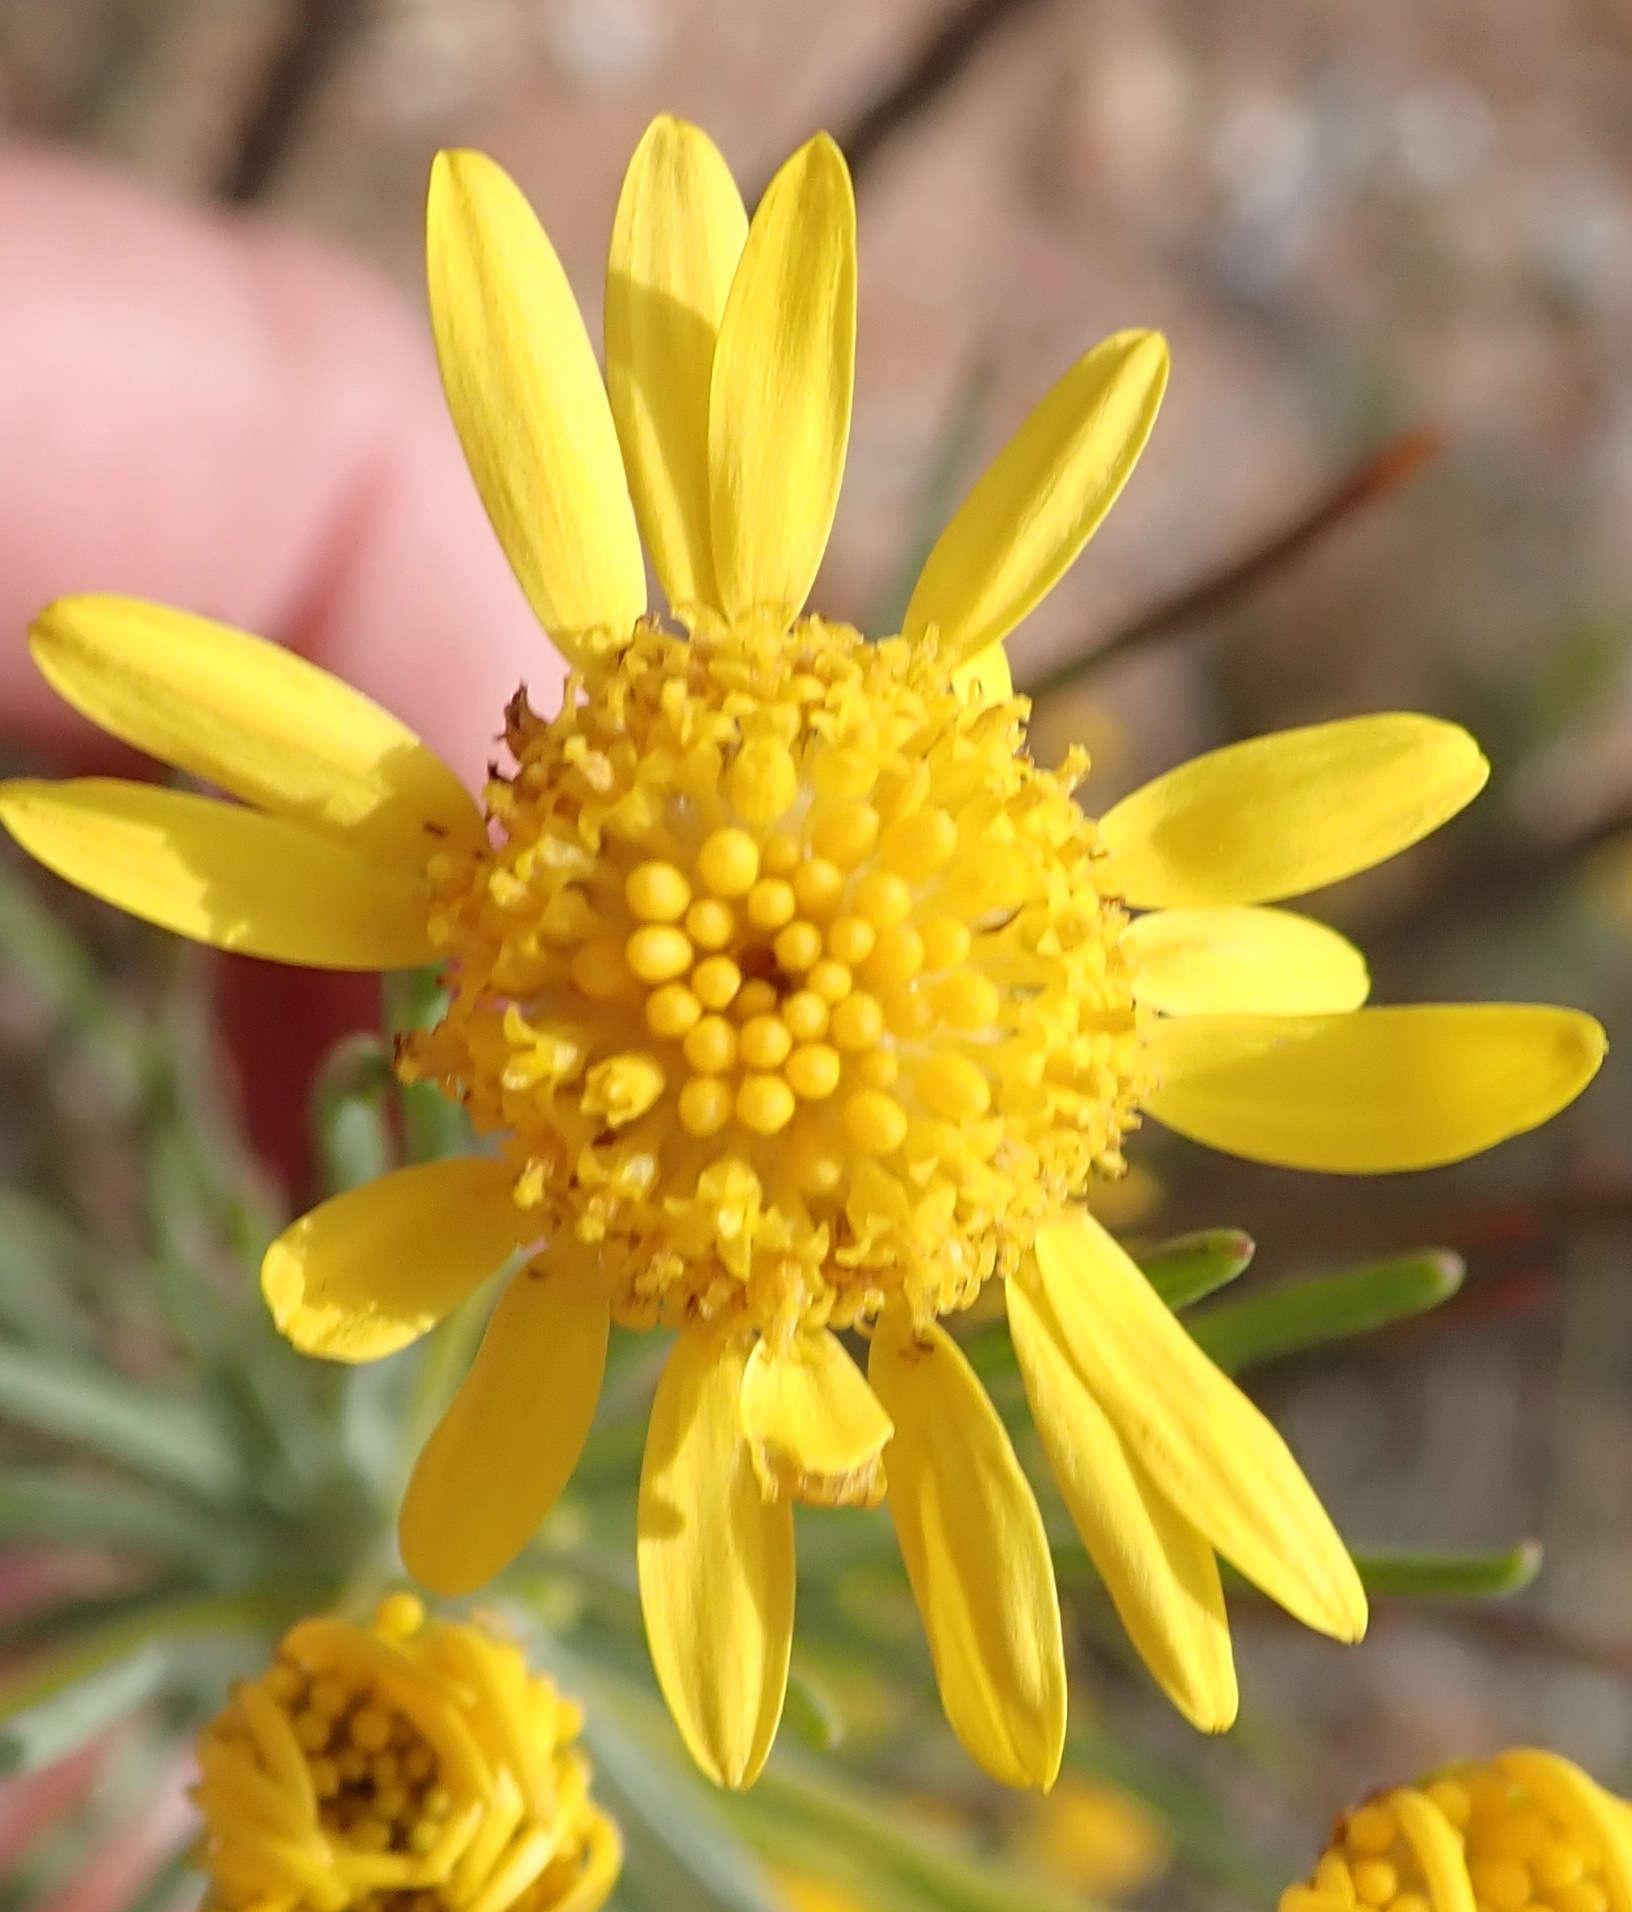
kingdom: Plantae
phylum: Tracheophyta
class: Magnoliopsida
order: Asterales
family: Asteraceae
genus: Euryops
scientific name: Euryops tenuissimus
